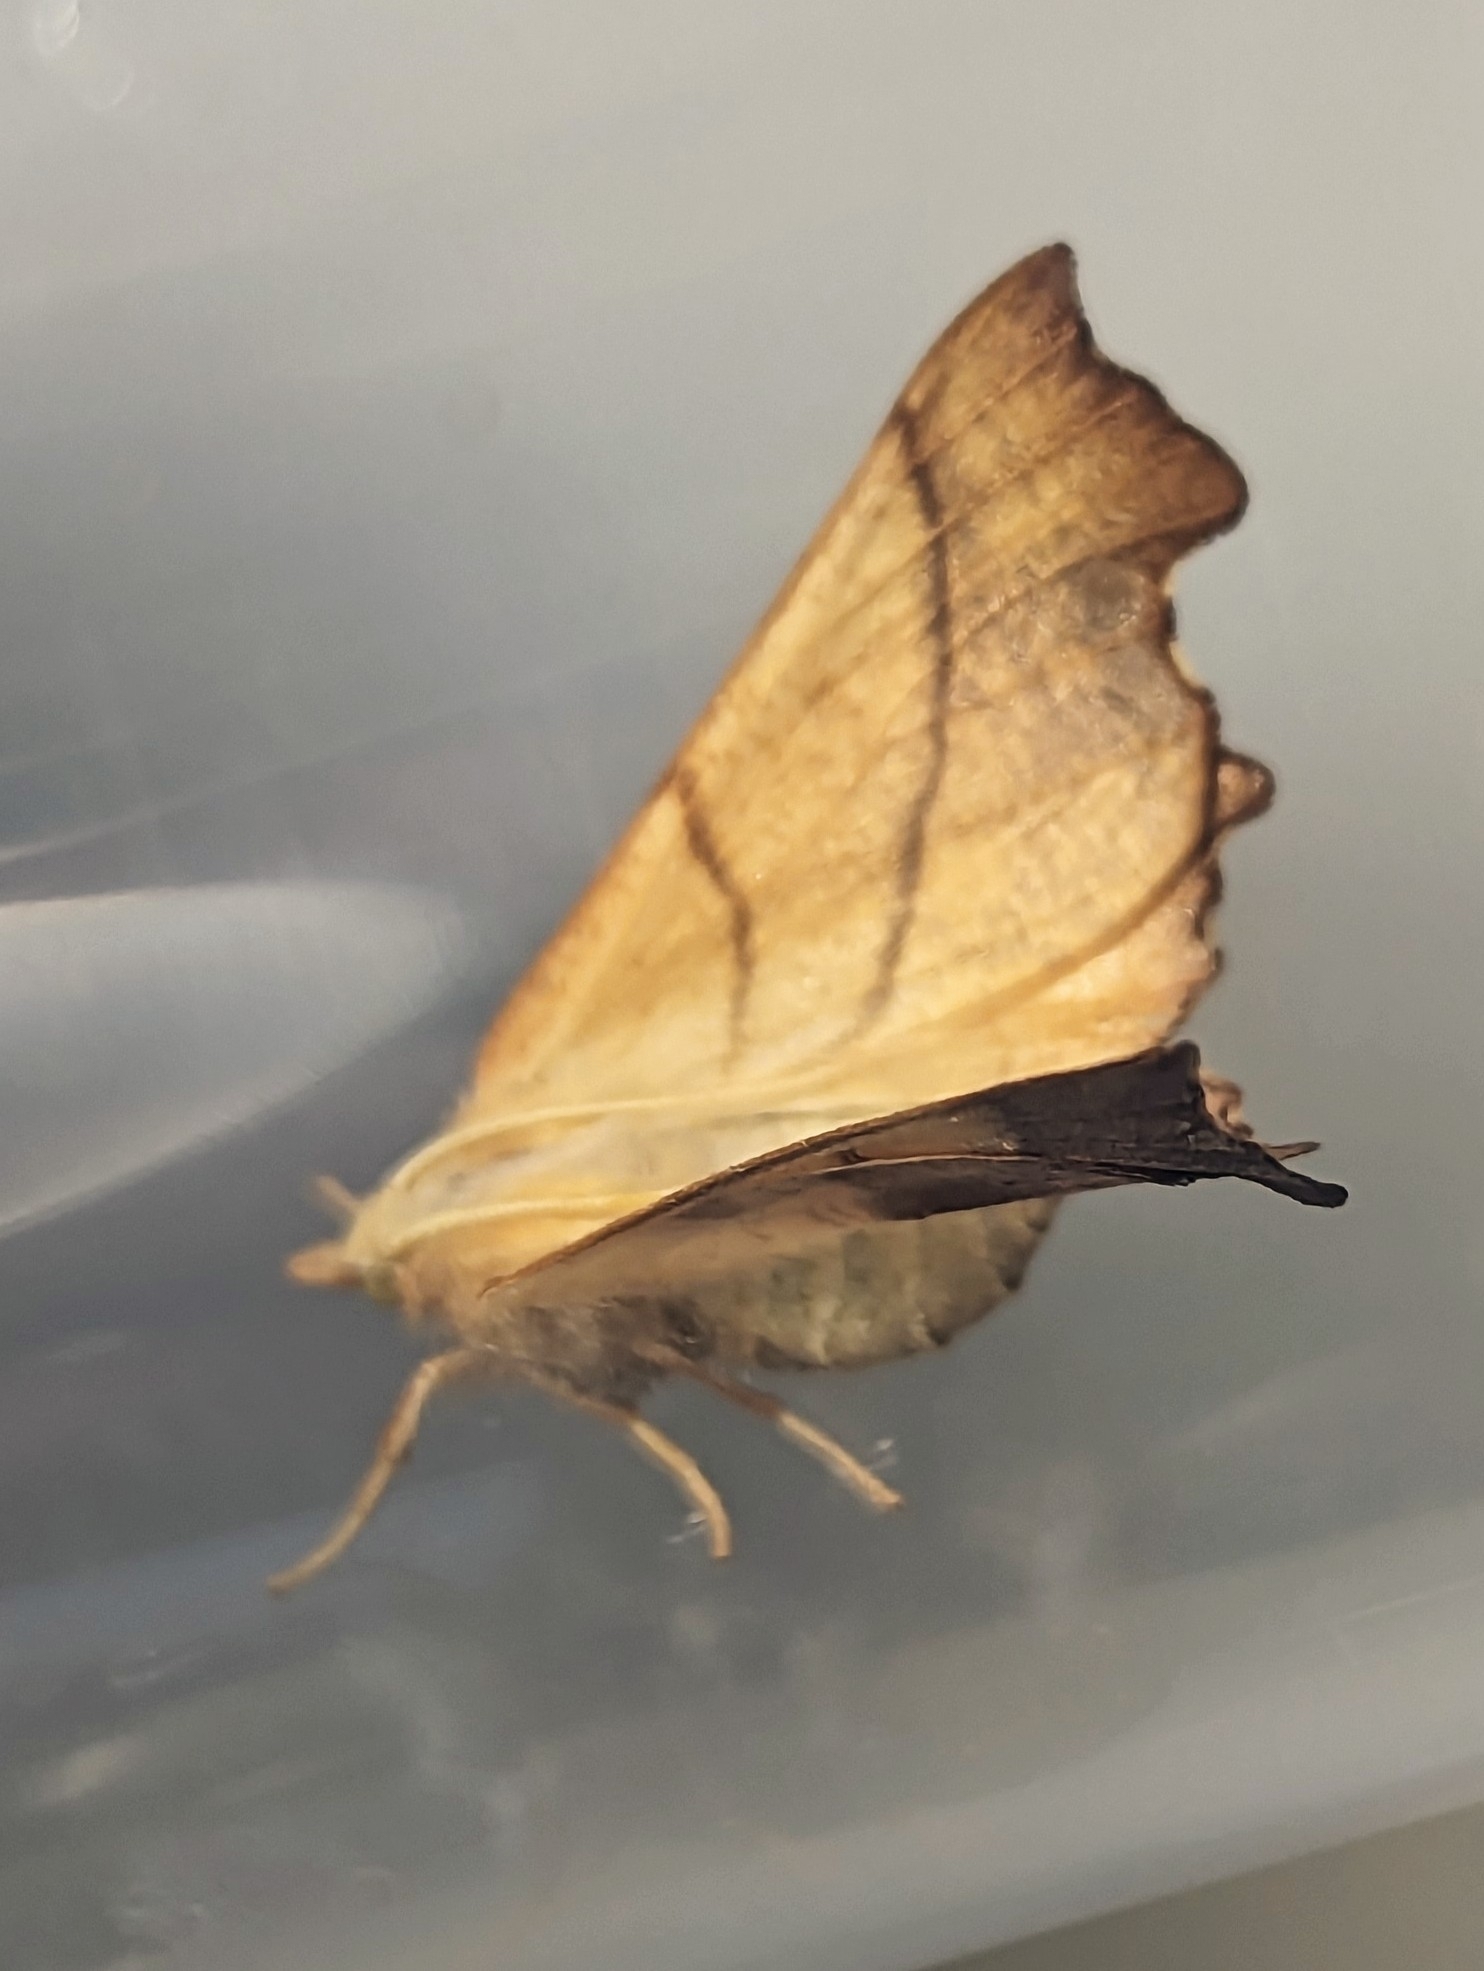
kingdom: Animalia
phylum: Arthropoda
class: Insecta
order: Lepidoptera
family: Geometridae
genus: Ennomos
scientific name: Ennomos fuscantaria
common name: Dusky thorn
